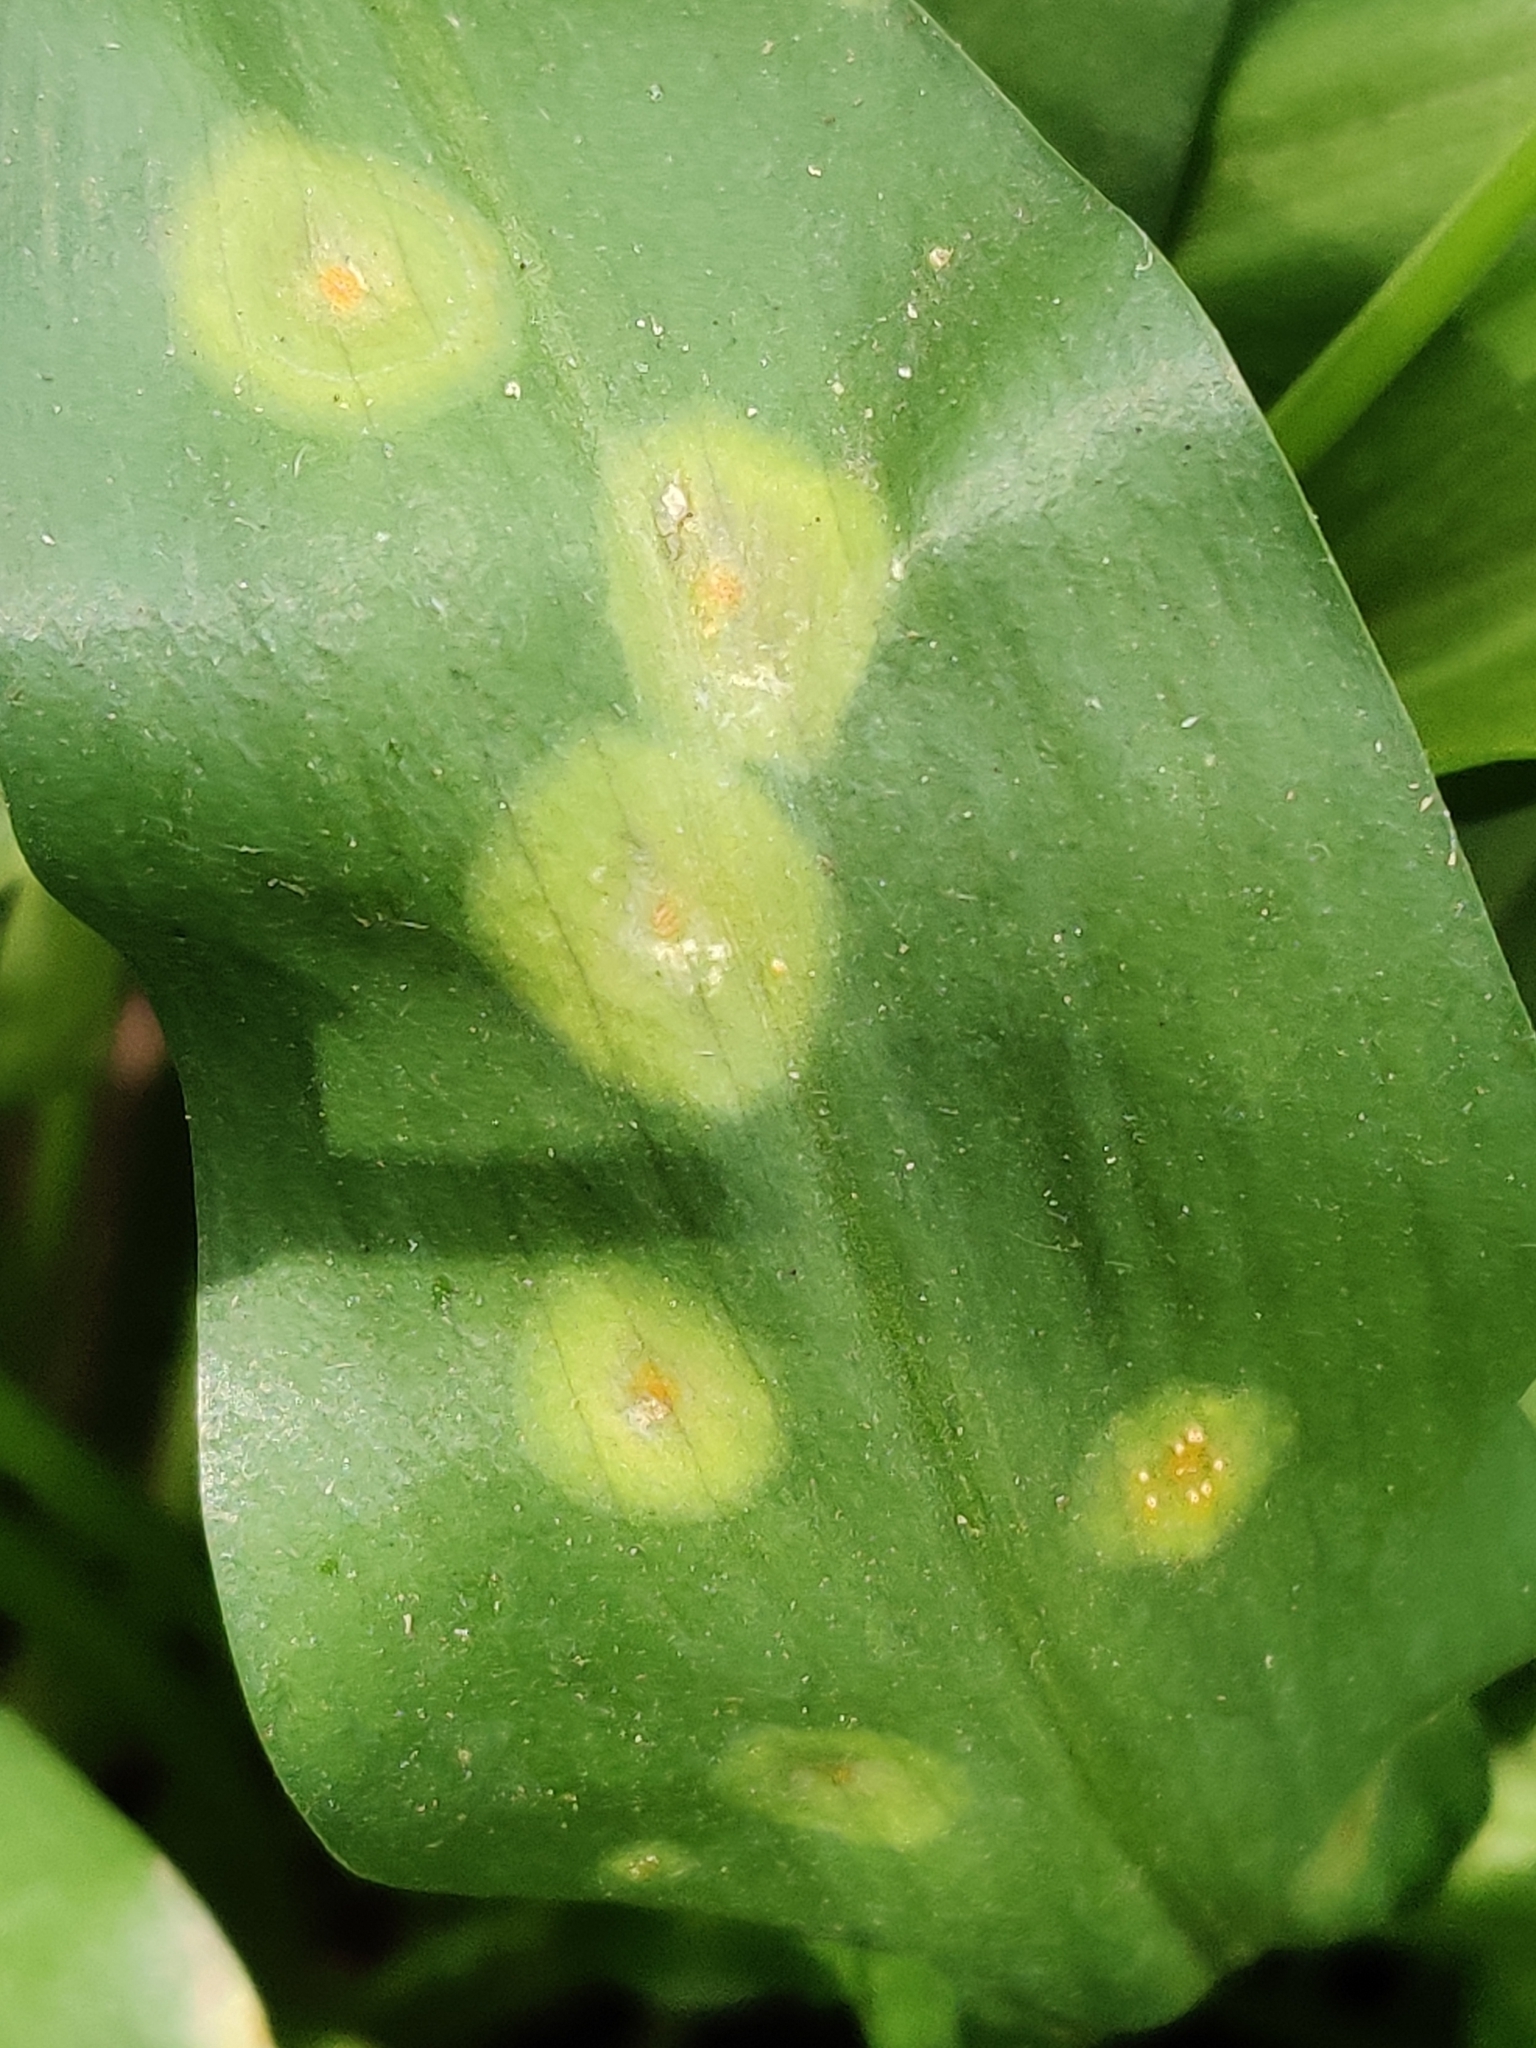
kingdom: Fungi
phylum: Basidiomycota
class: Pucciniomycetes
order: Pucciniales
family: Pucciniaceae
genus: Puccinia
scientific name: Puccinia sessilis
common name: Arum rust
